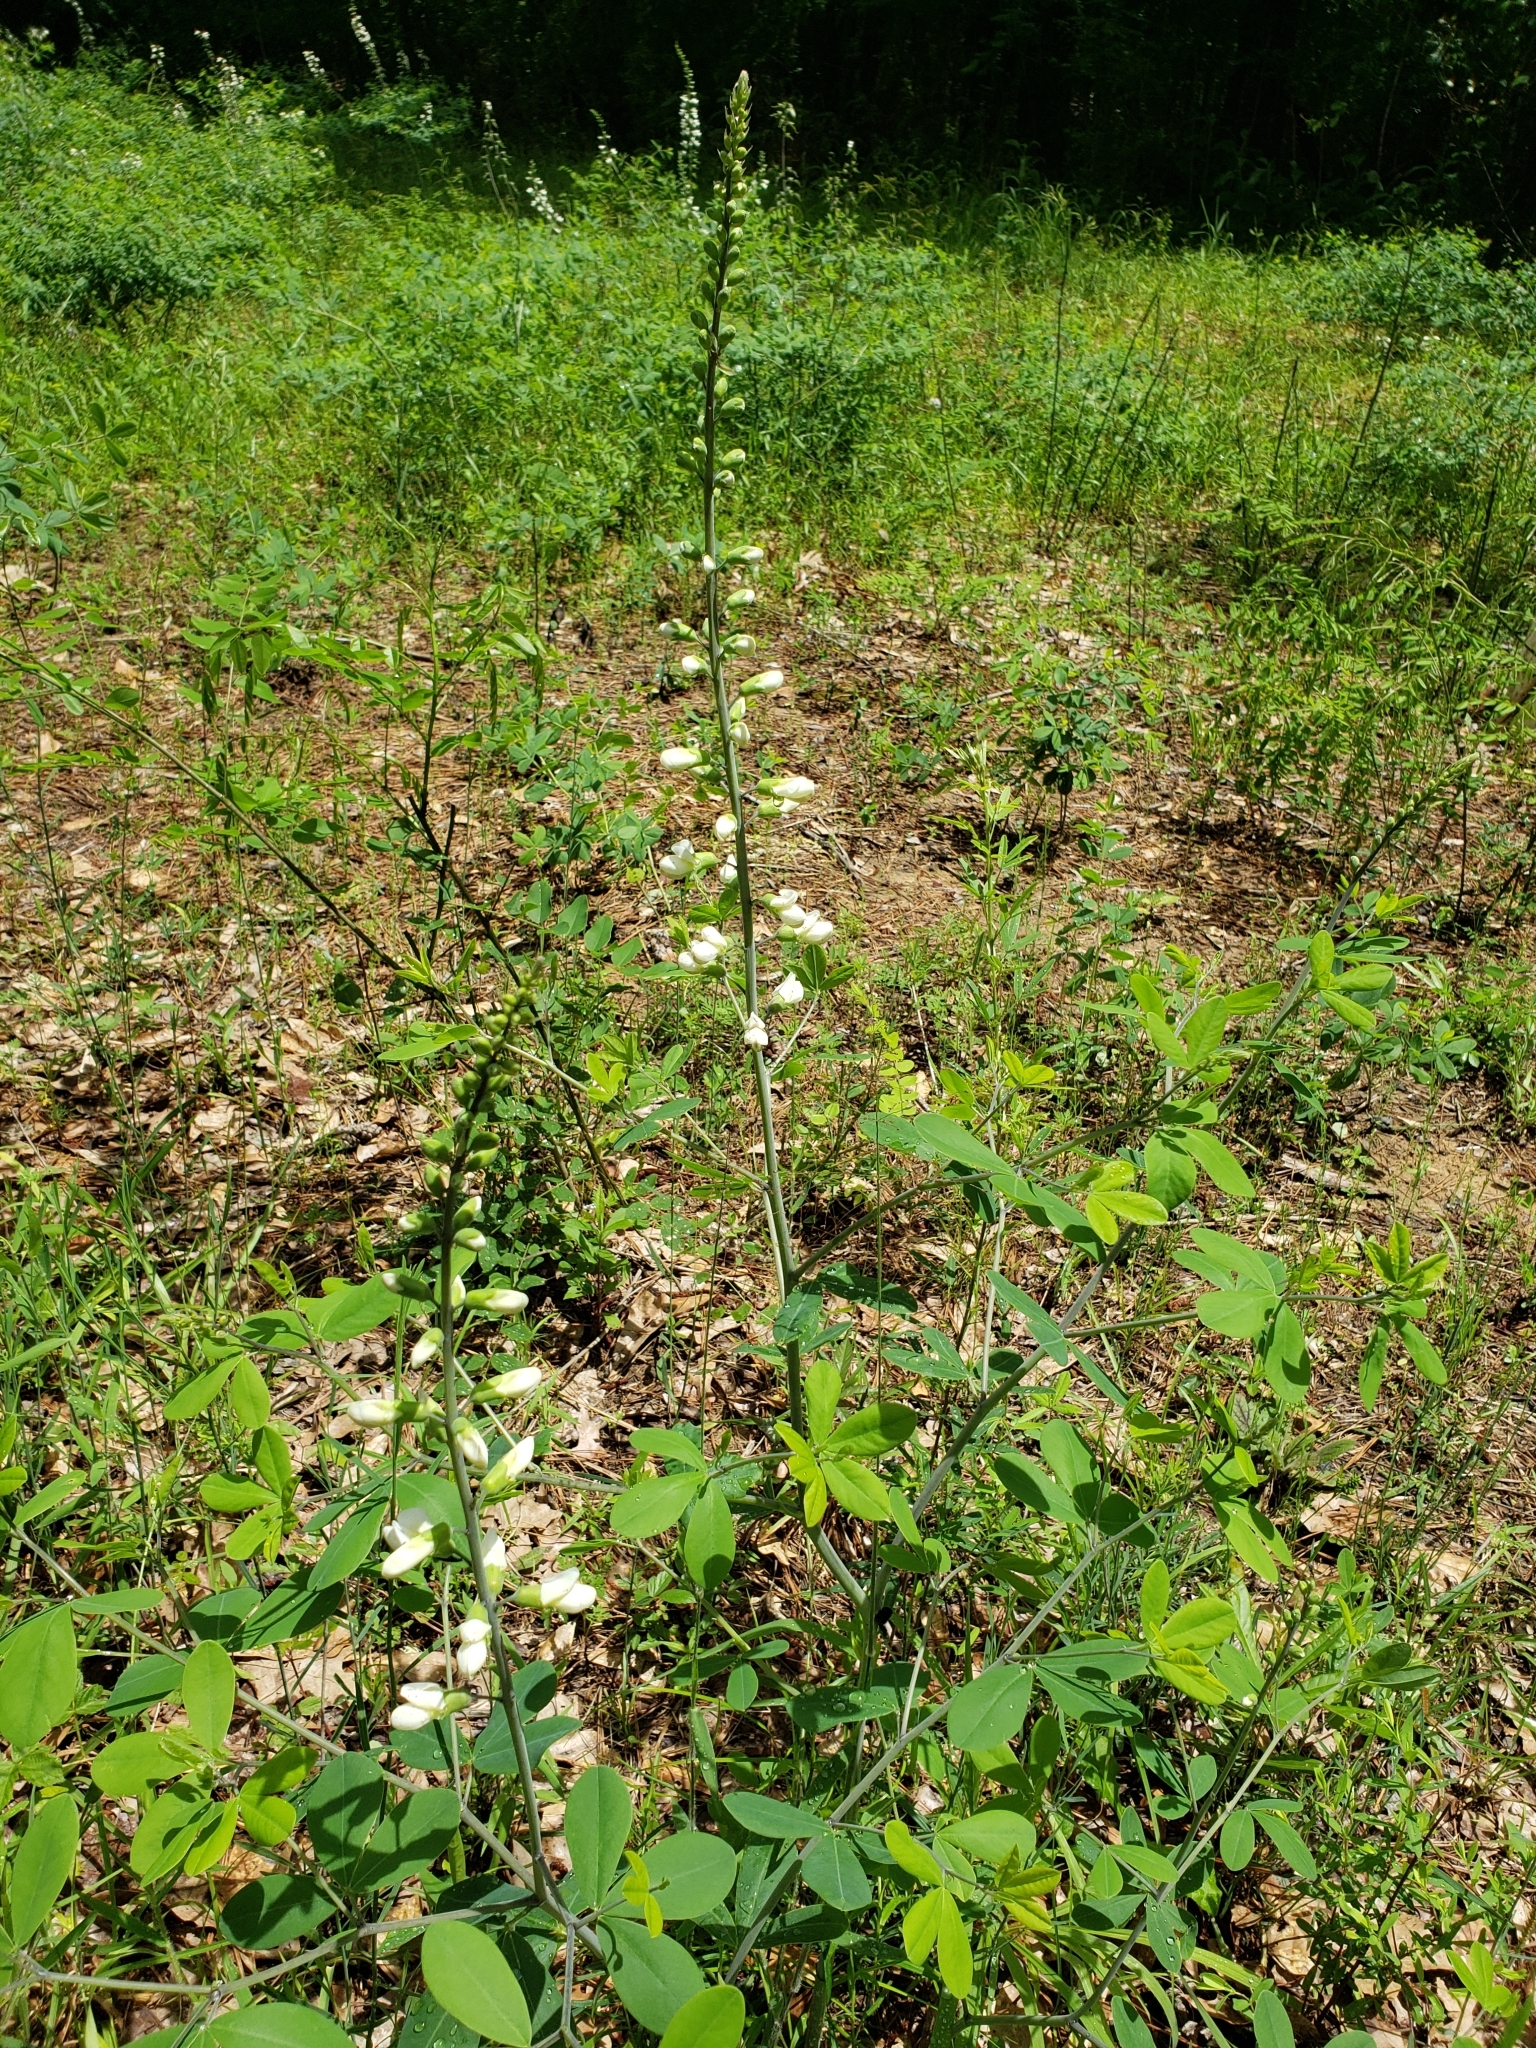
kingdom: Plantae
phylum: Tracheophyta
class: Magnoliopsida
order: Fabales
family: Fabaceae
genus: Baptisia
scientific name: Baptisia alba
